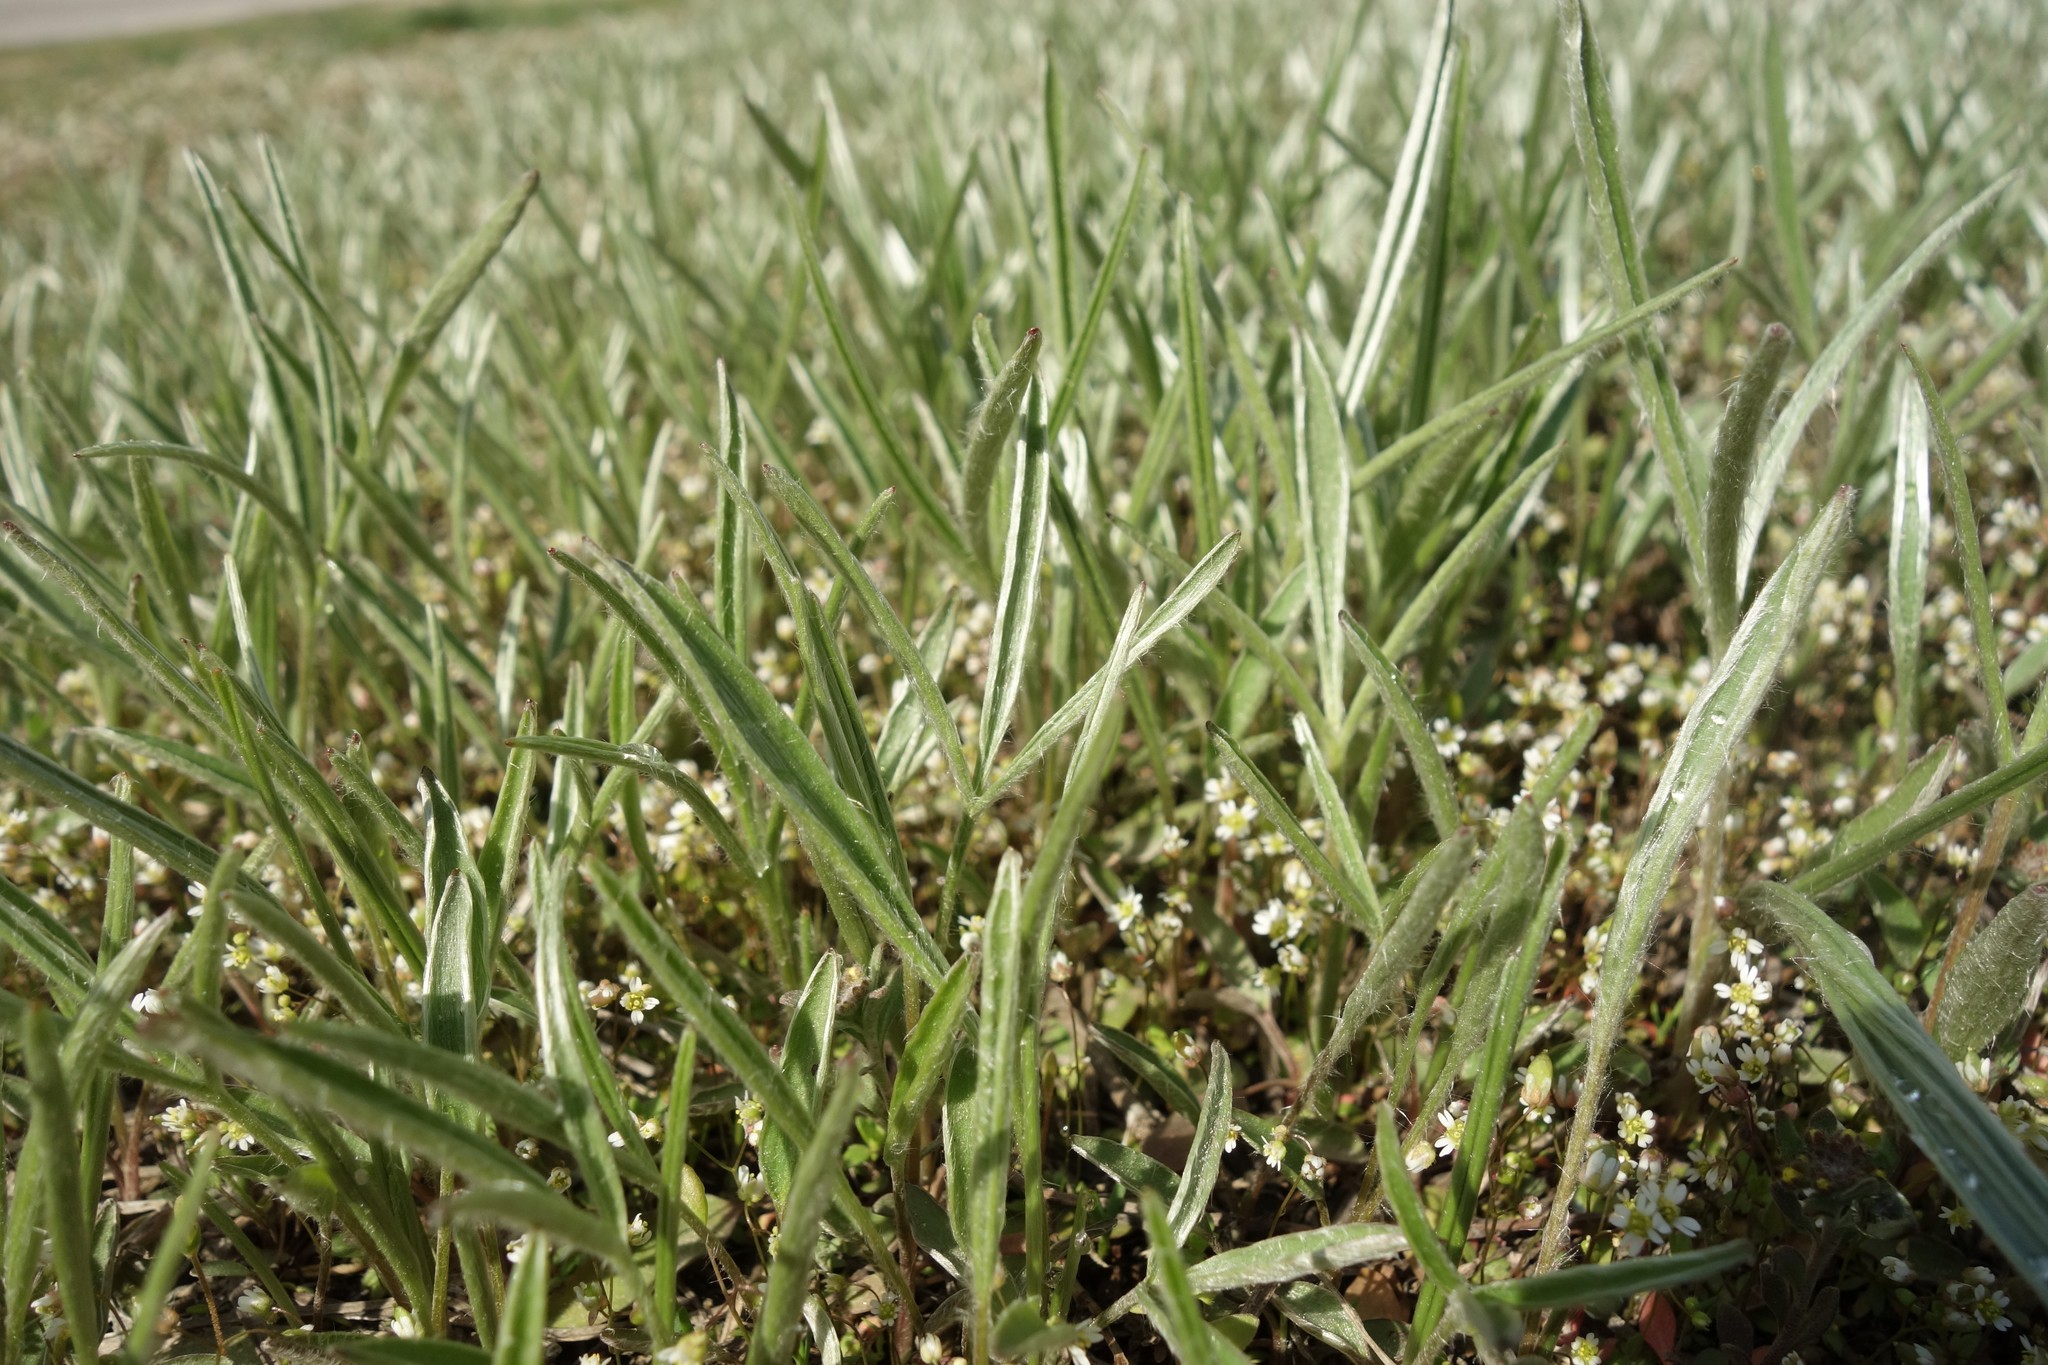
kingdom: Plantae
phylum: Tracheophyta
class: Magnoliopsida
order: Ranunculales
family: Ranunculaceae
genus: Ranunculus
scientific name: Ranunculus illyricus
